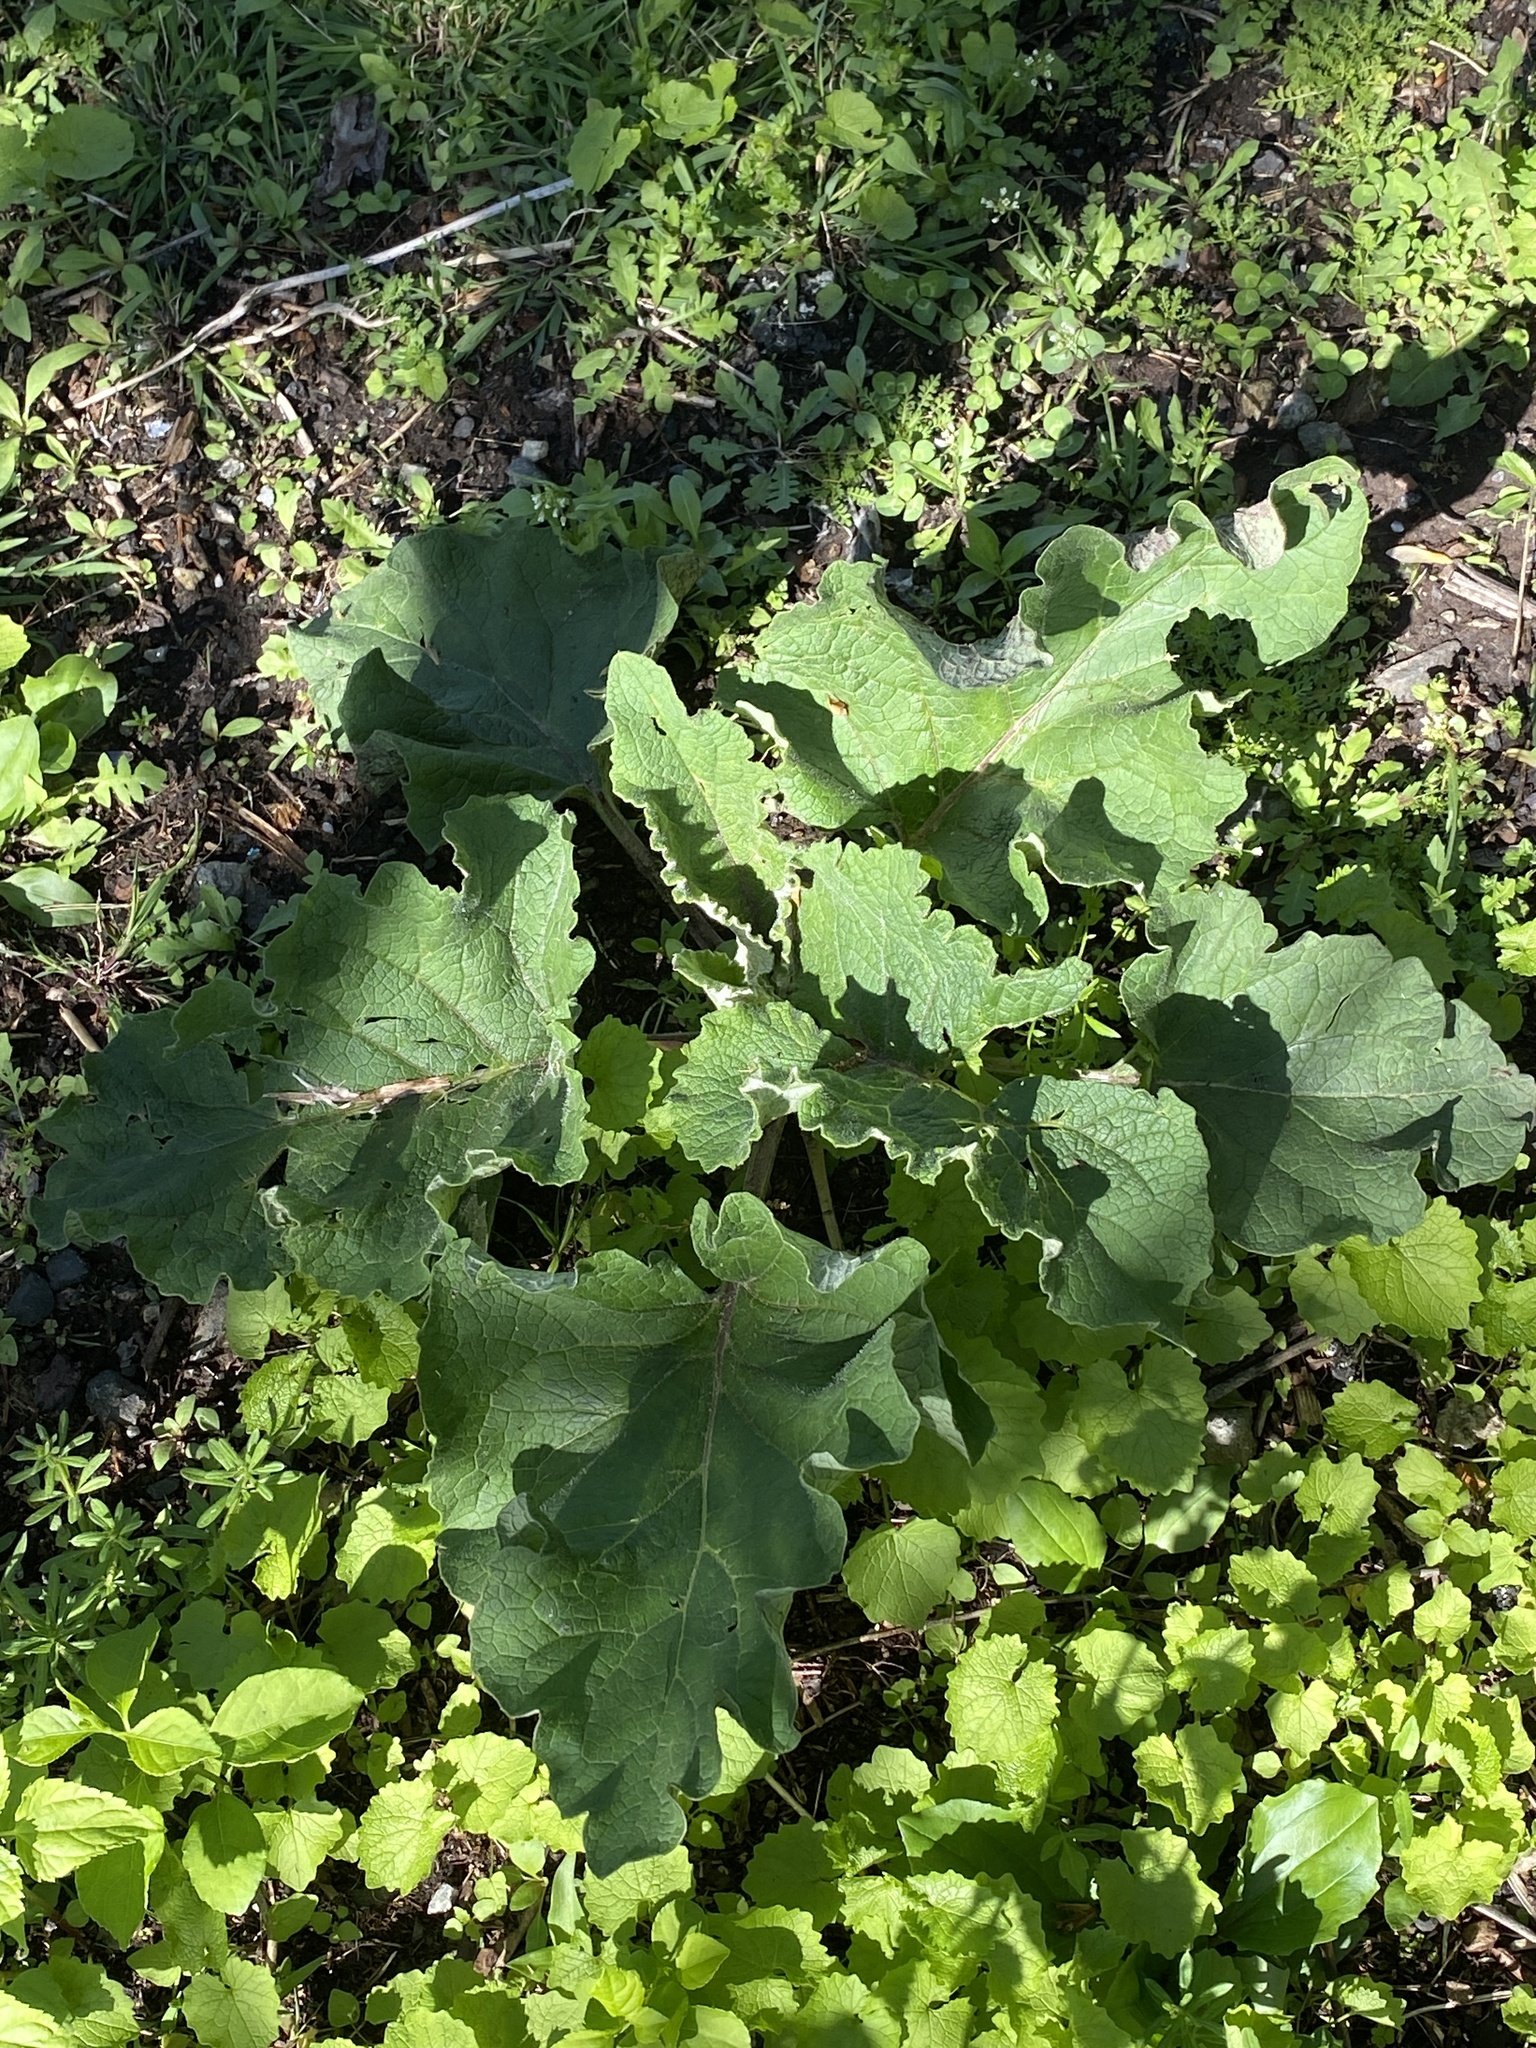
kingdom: Plantae
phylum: Tracheophyta
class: Magnoliopsida
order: Asterales
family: Asteraceae
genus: Arctium
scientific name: Arctium minus
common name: Lesser burdock
